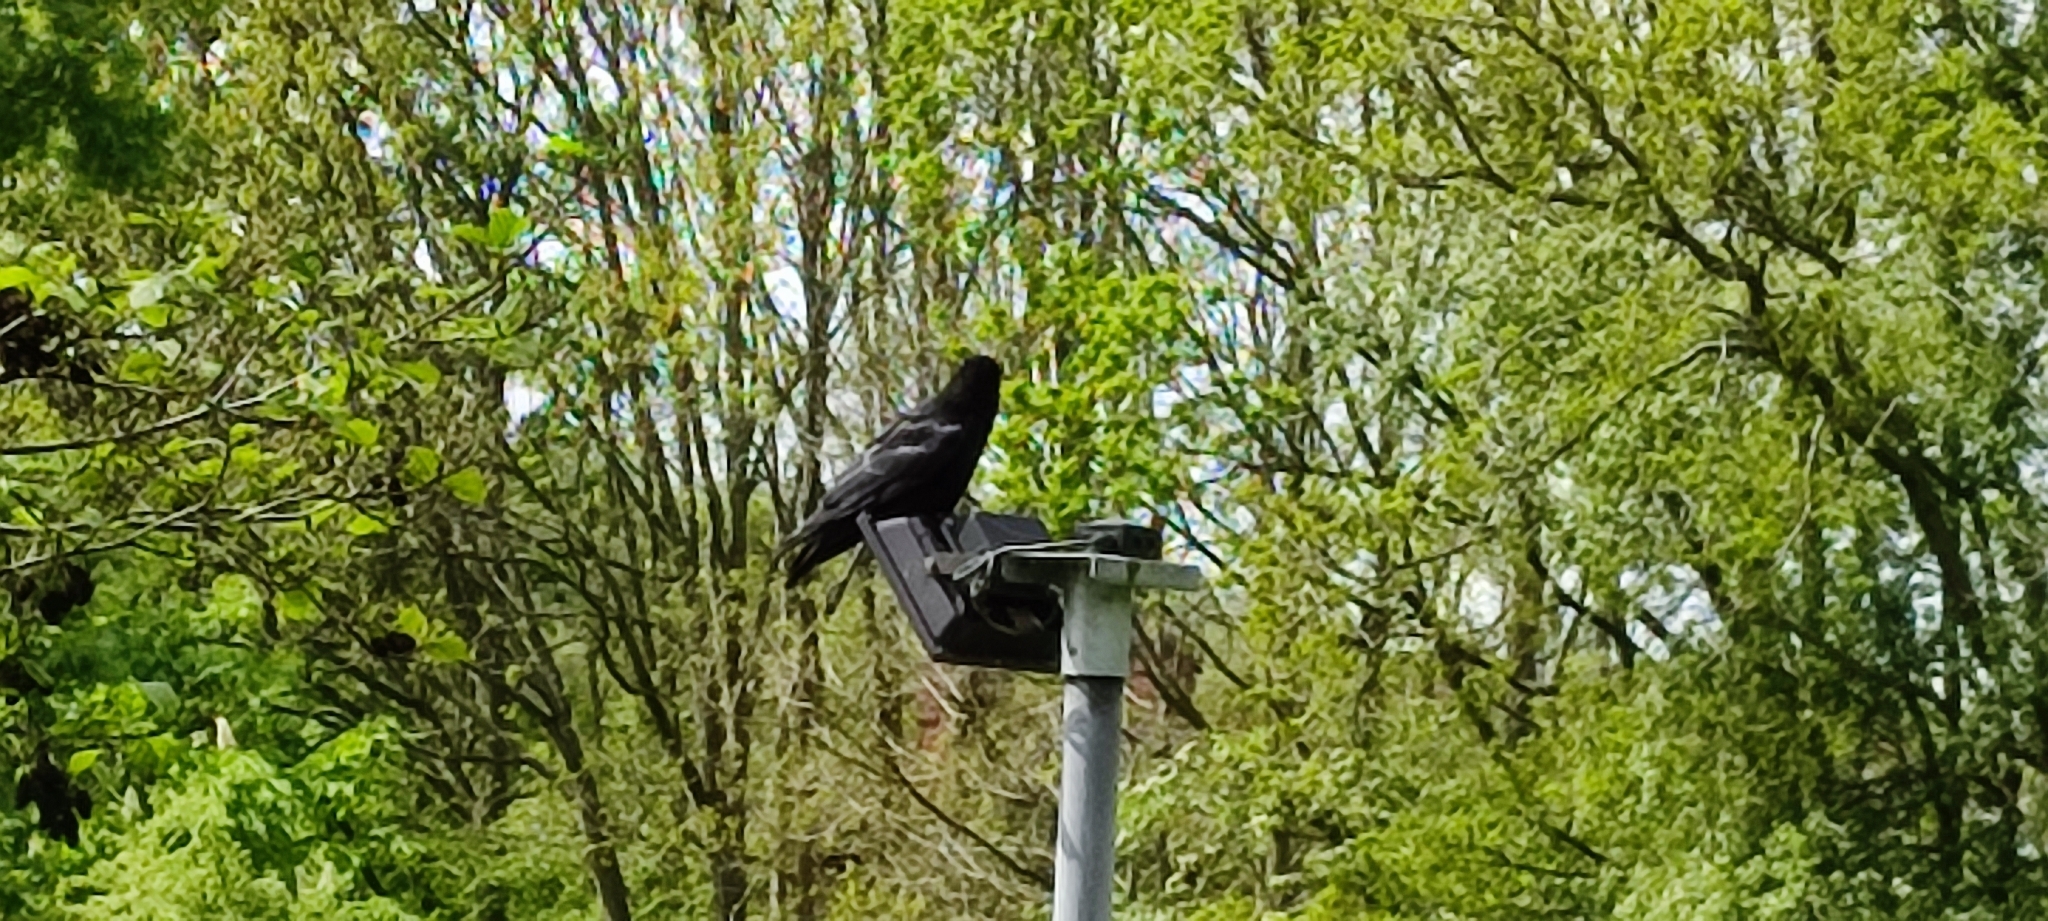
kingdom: Animalia
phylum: Chordata
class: Aves
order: Passeriformes
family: Corvidae
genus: Corvus
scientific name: Corvus corone
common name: Carrion crow
